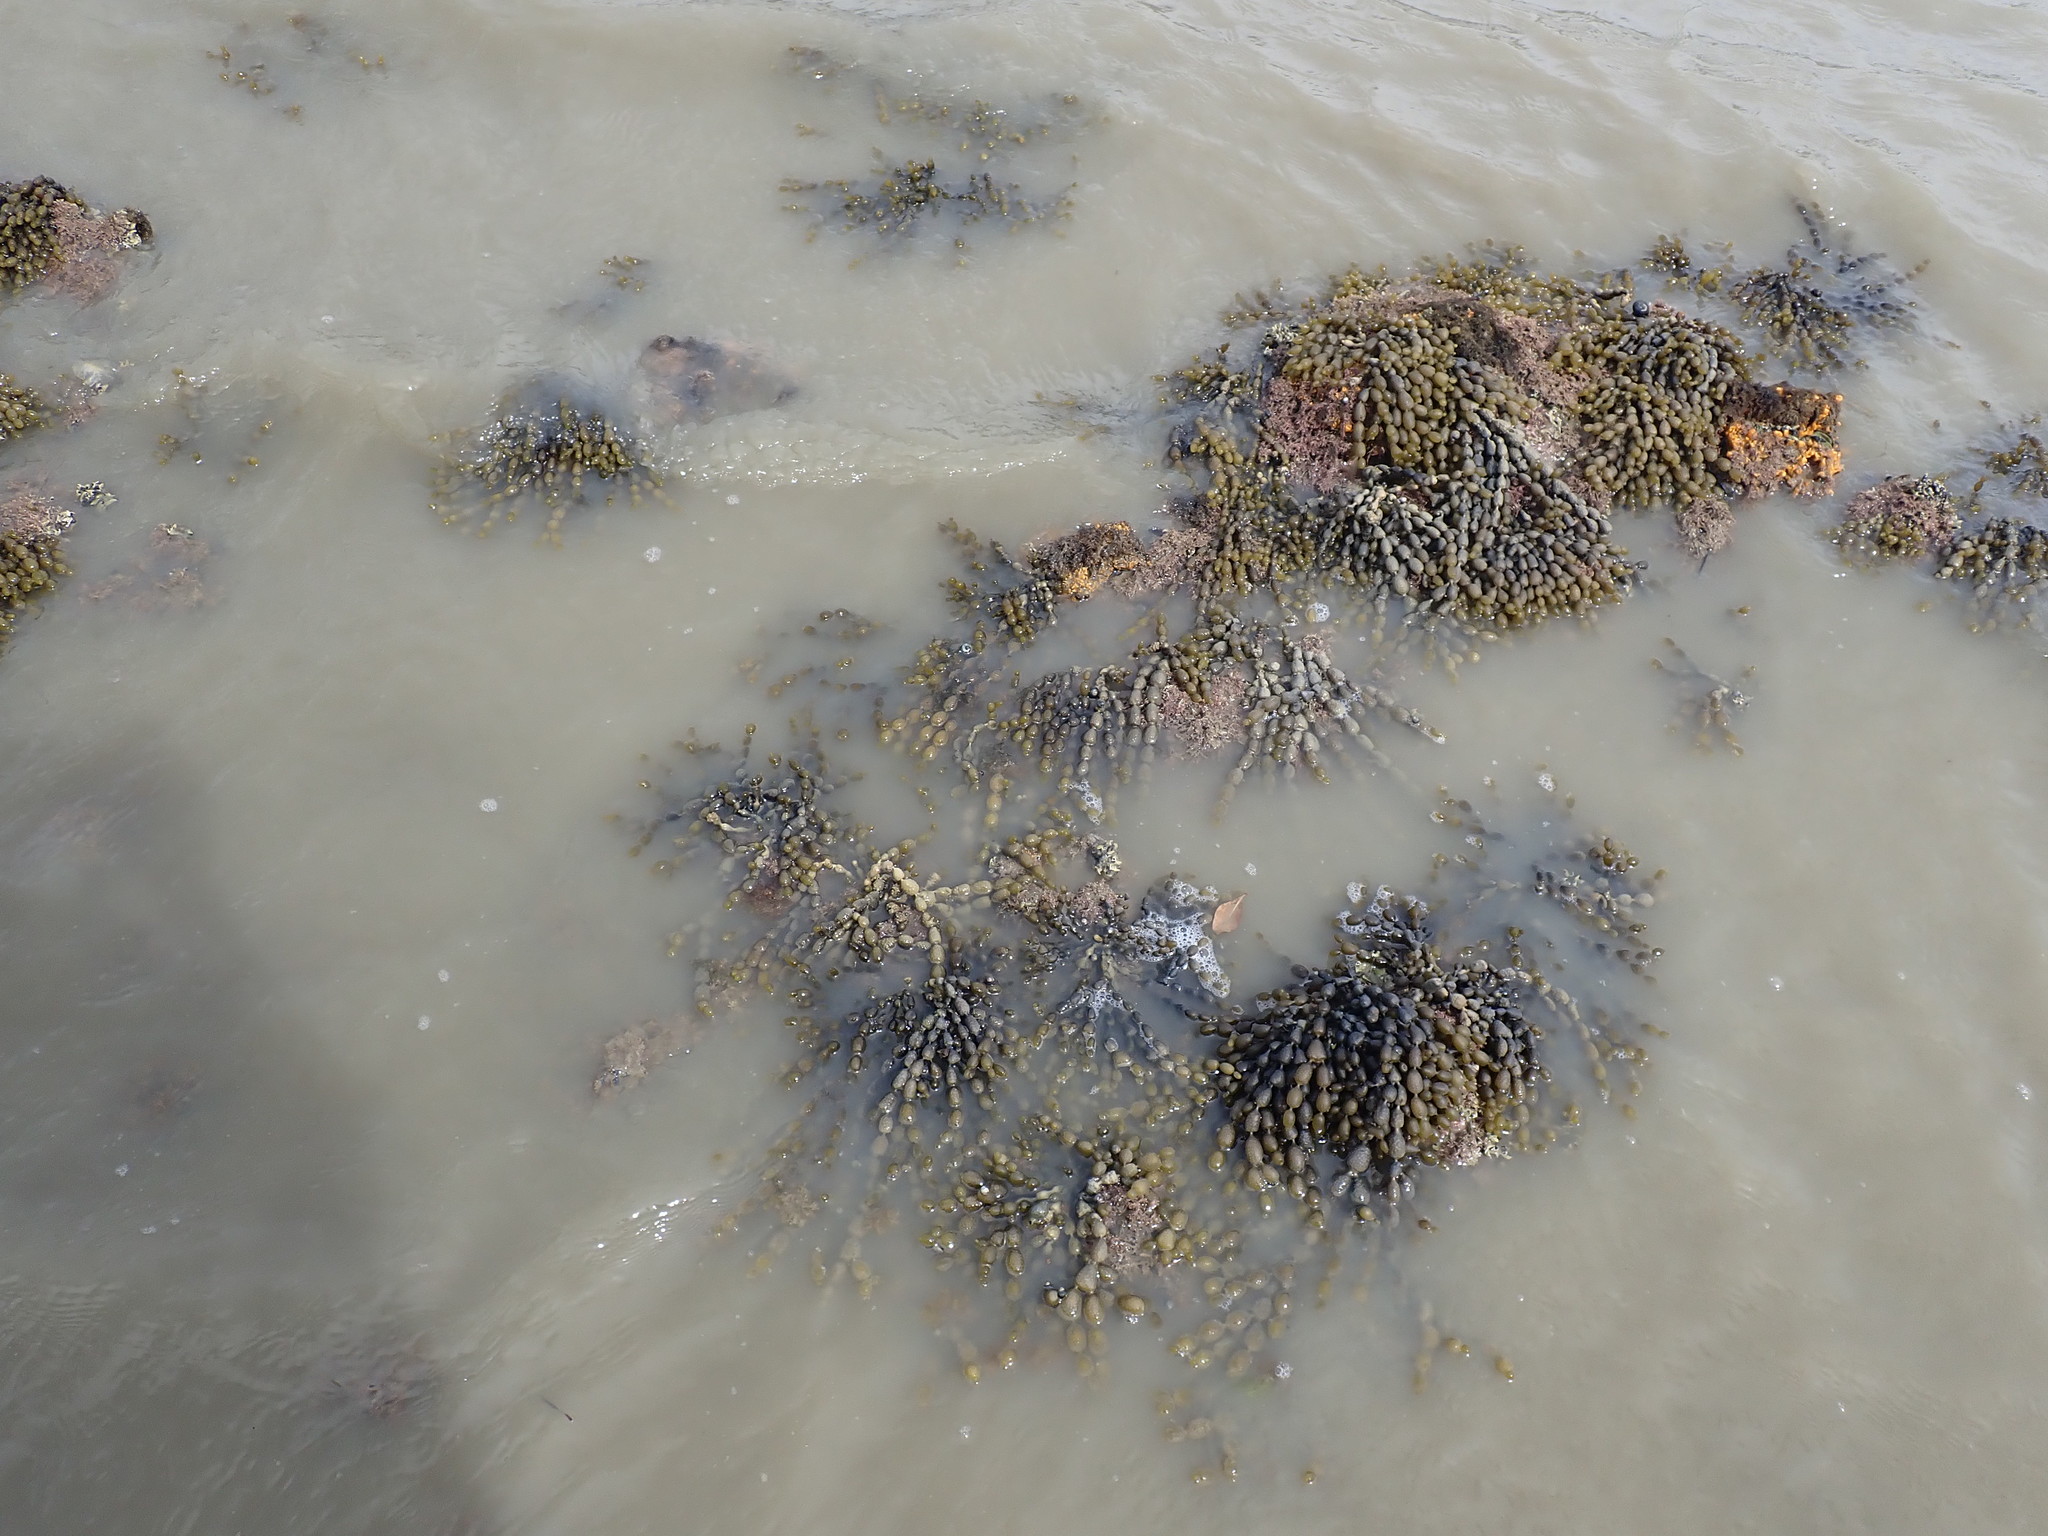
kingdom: Chromista
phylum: Ochrophyta
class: Phaeophyceae
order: Fucales
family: Hormosiraceae
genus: Hormosira
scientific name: Hormosira banksii
